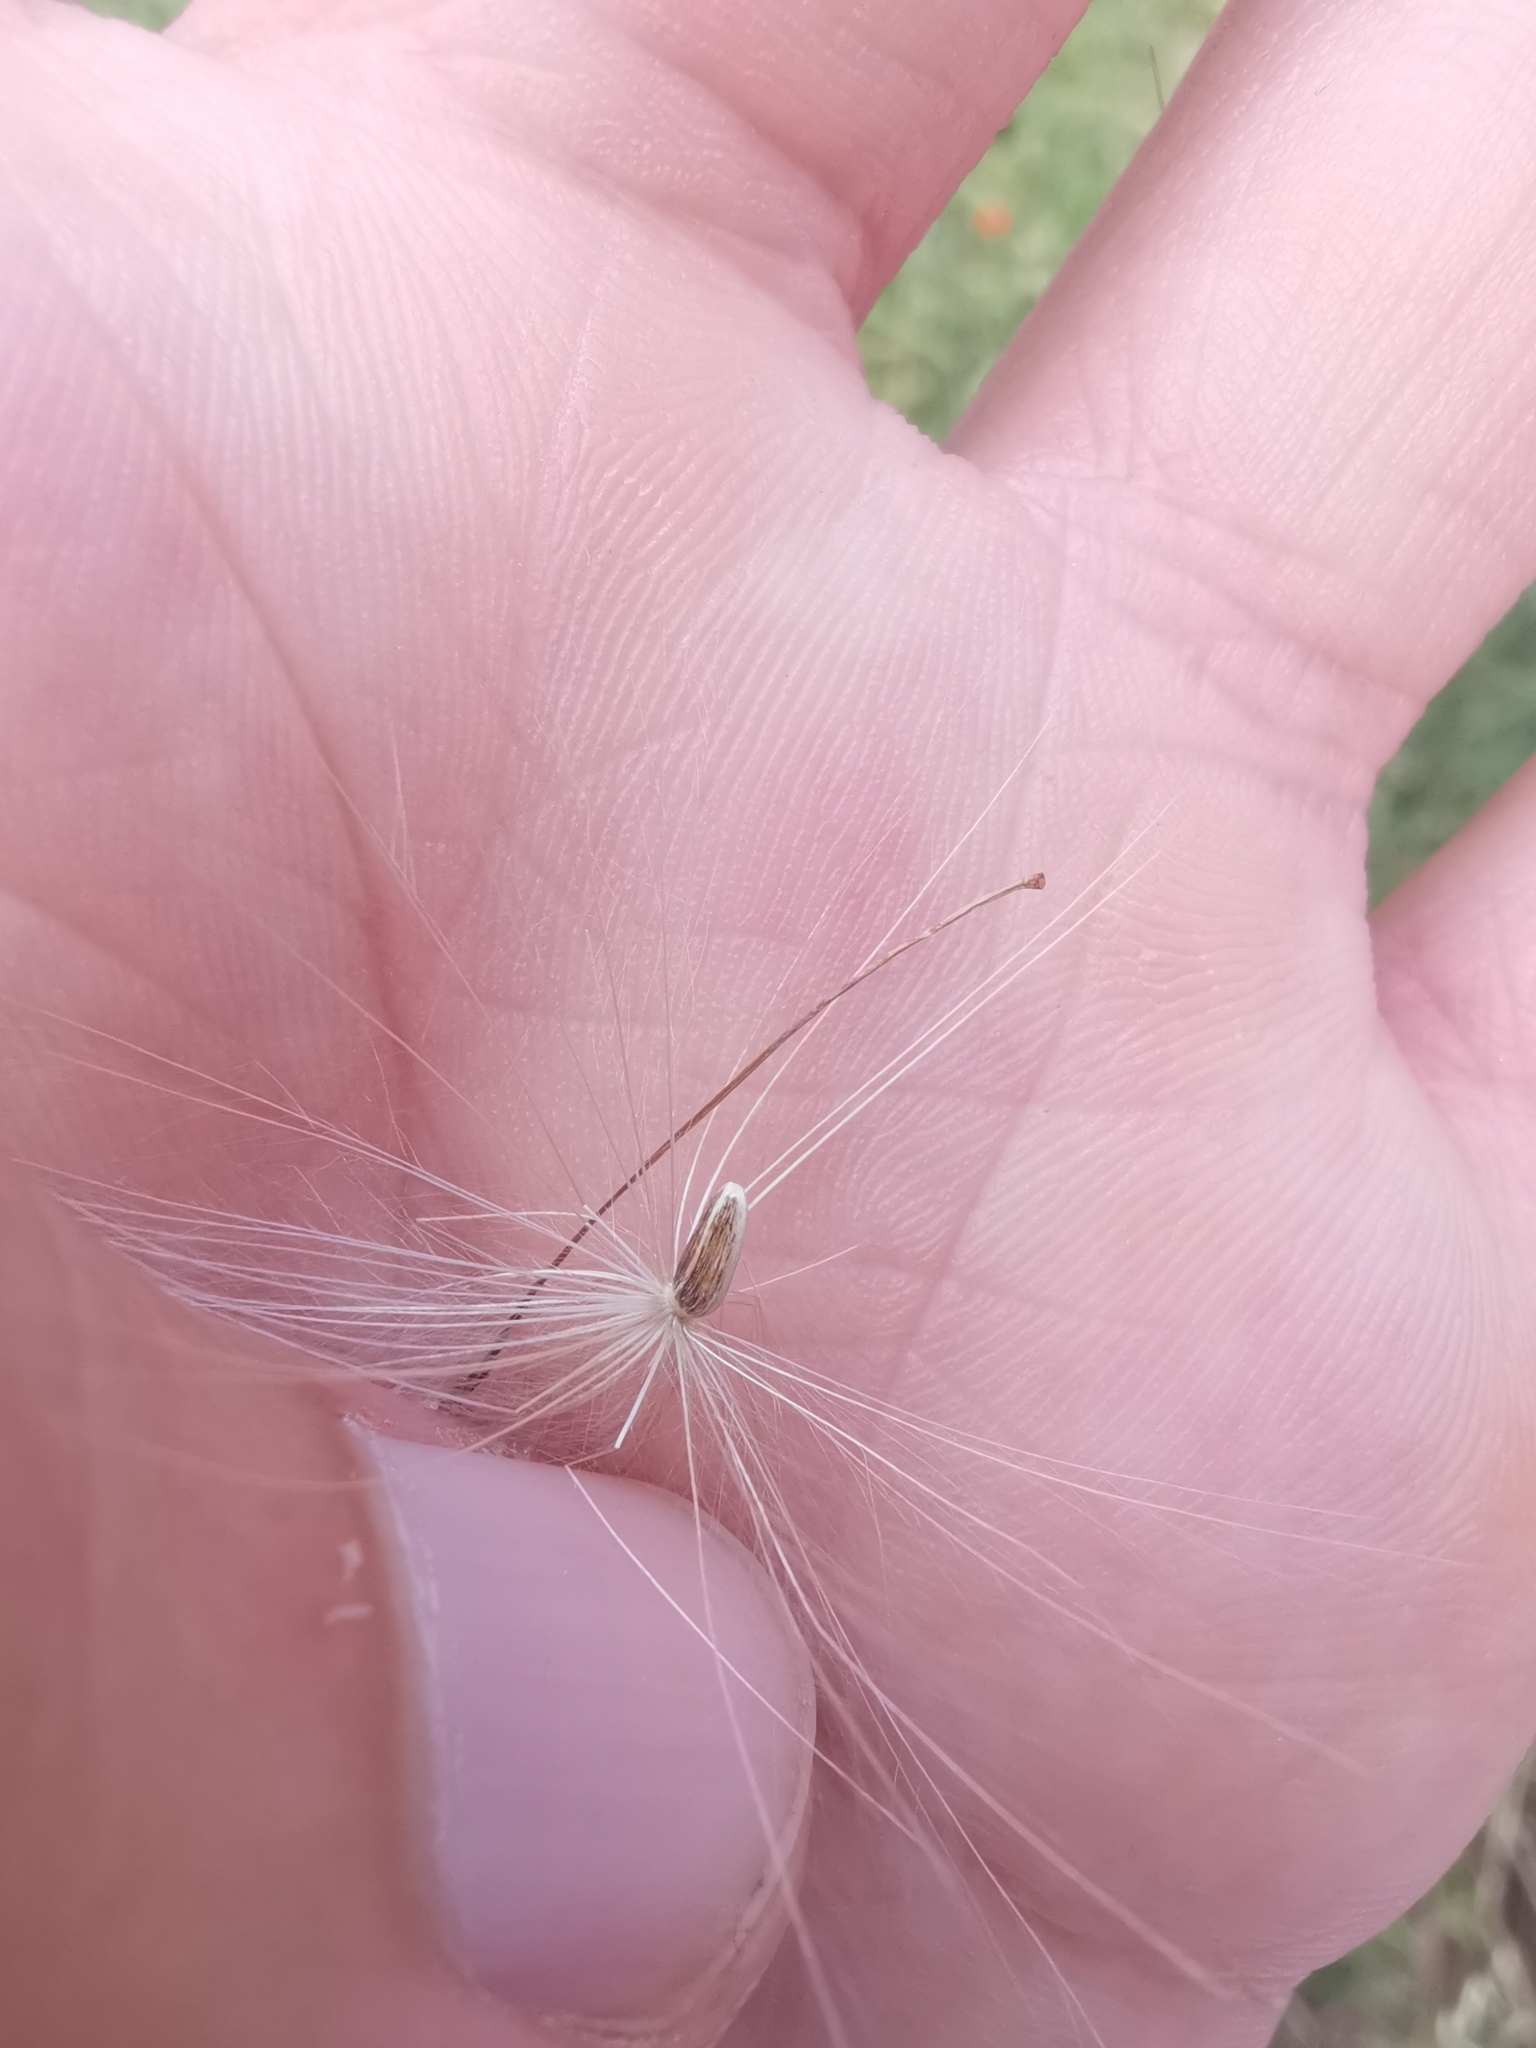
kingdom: Plantae
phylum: Tracheophyta
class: Magnoliopsida
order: Asterales
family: Asteraceae
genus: Cirsium
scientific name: Cirsium vulgare
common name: Bull thistle
